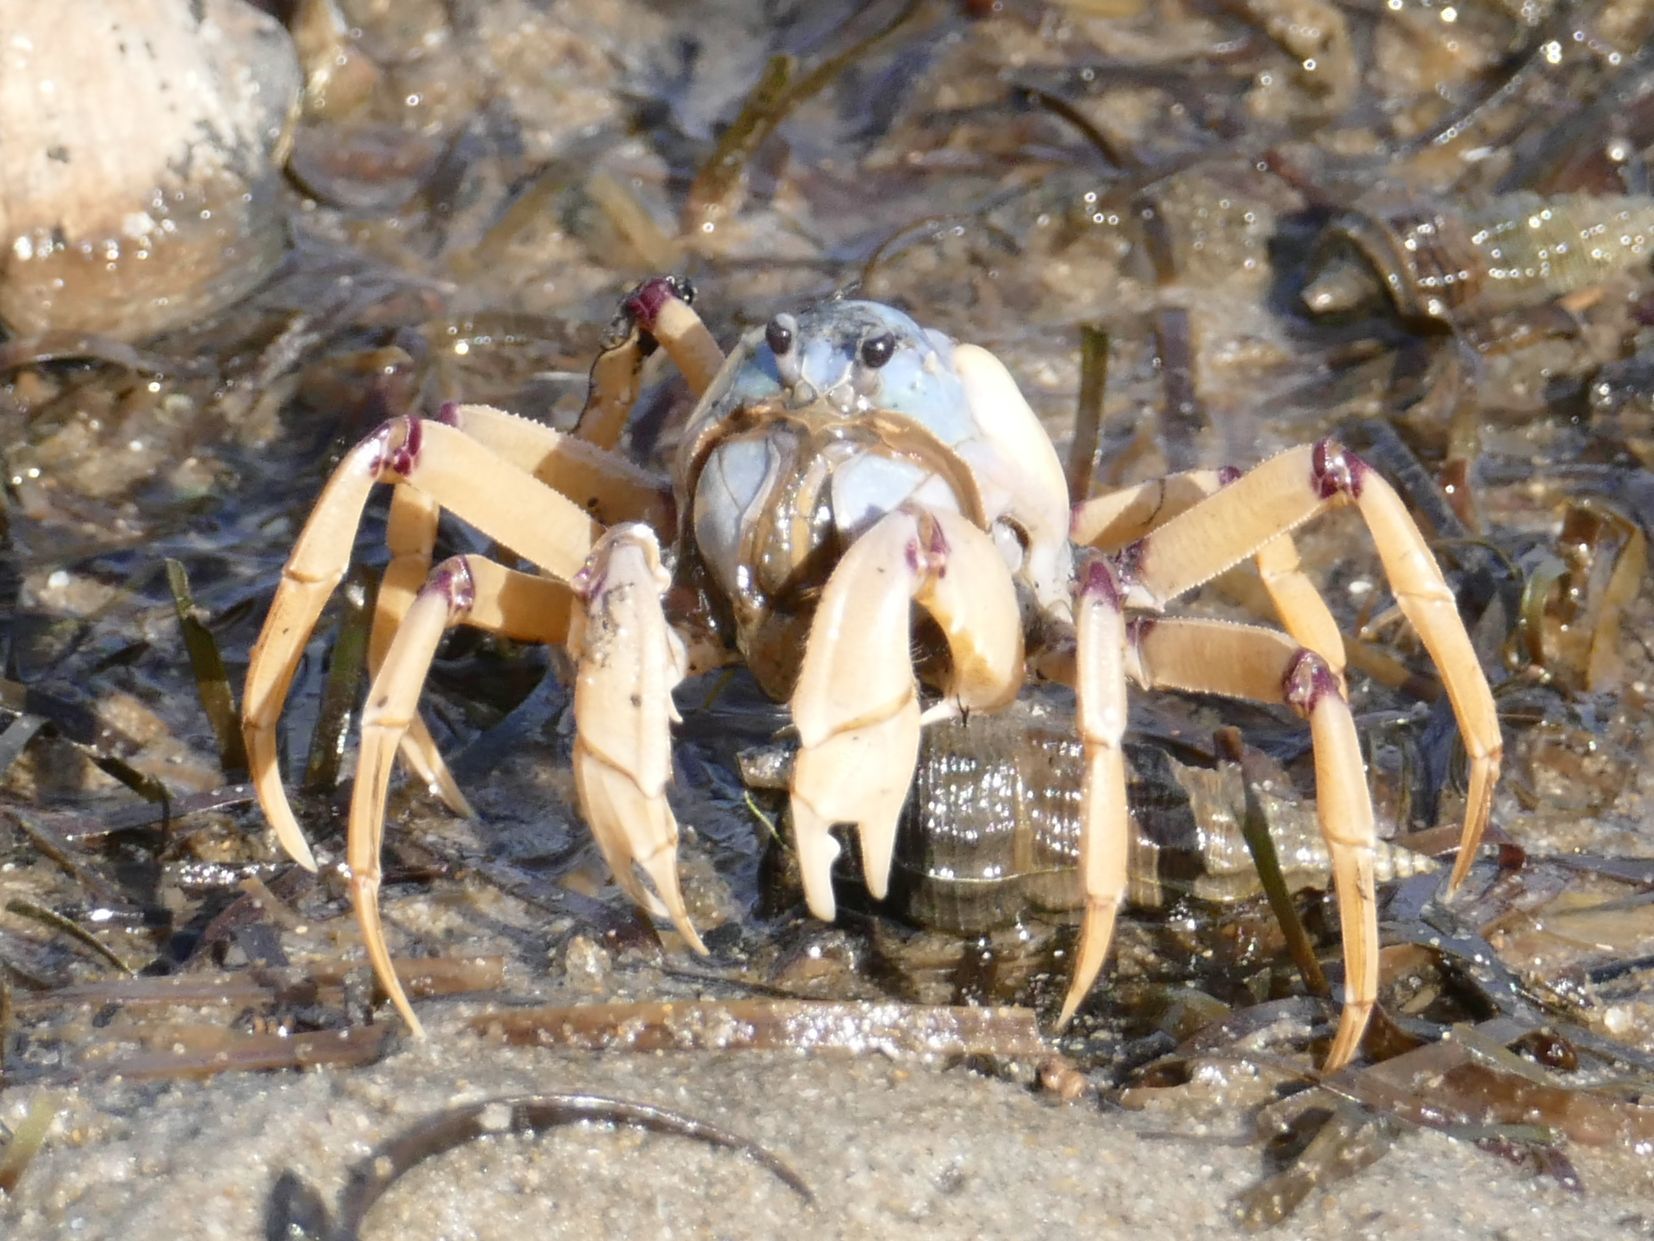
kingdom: Animalia
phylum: Arthropoda
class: Malacostraca
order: Decapoda
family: Mictyridae
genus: Mictyris
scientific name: Mictyris longicarpus
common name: Light-blue soldier crab
